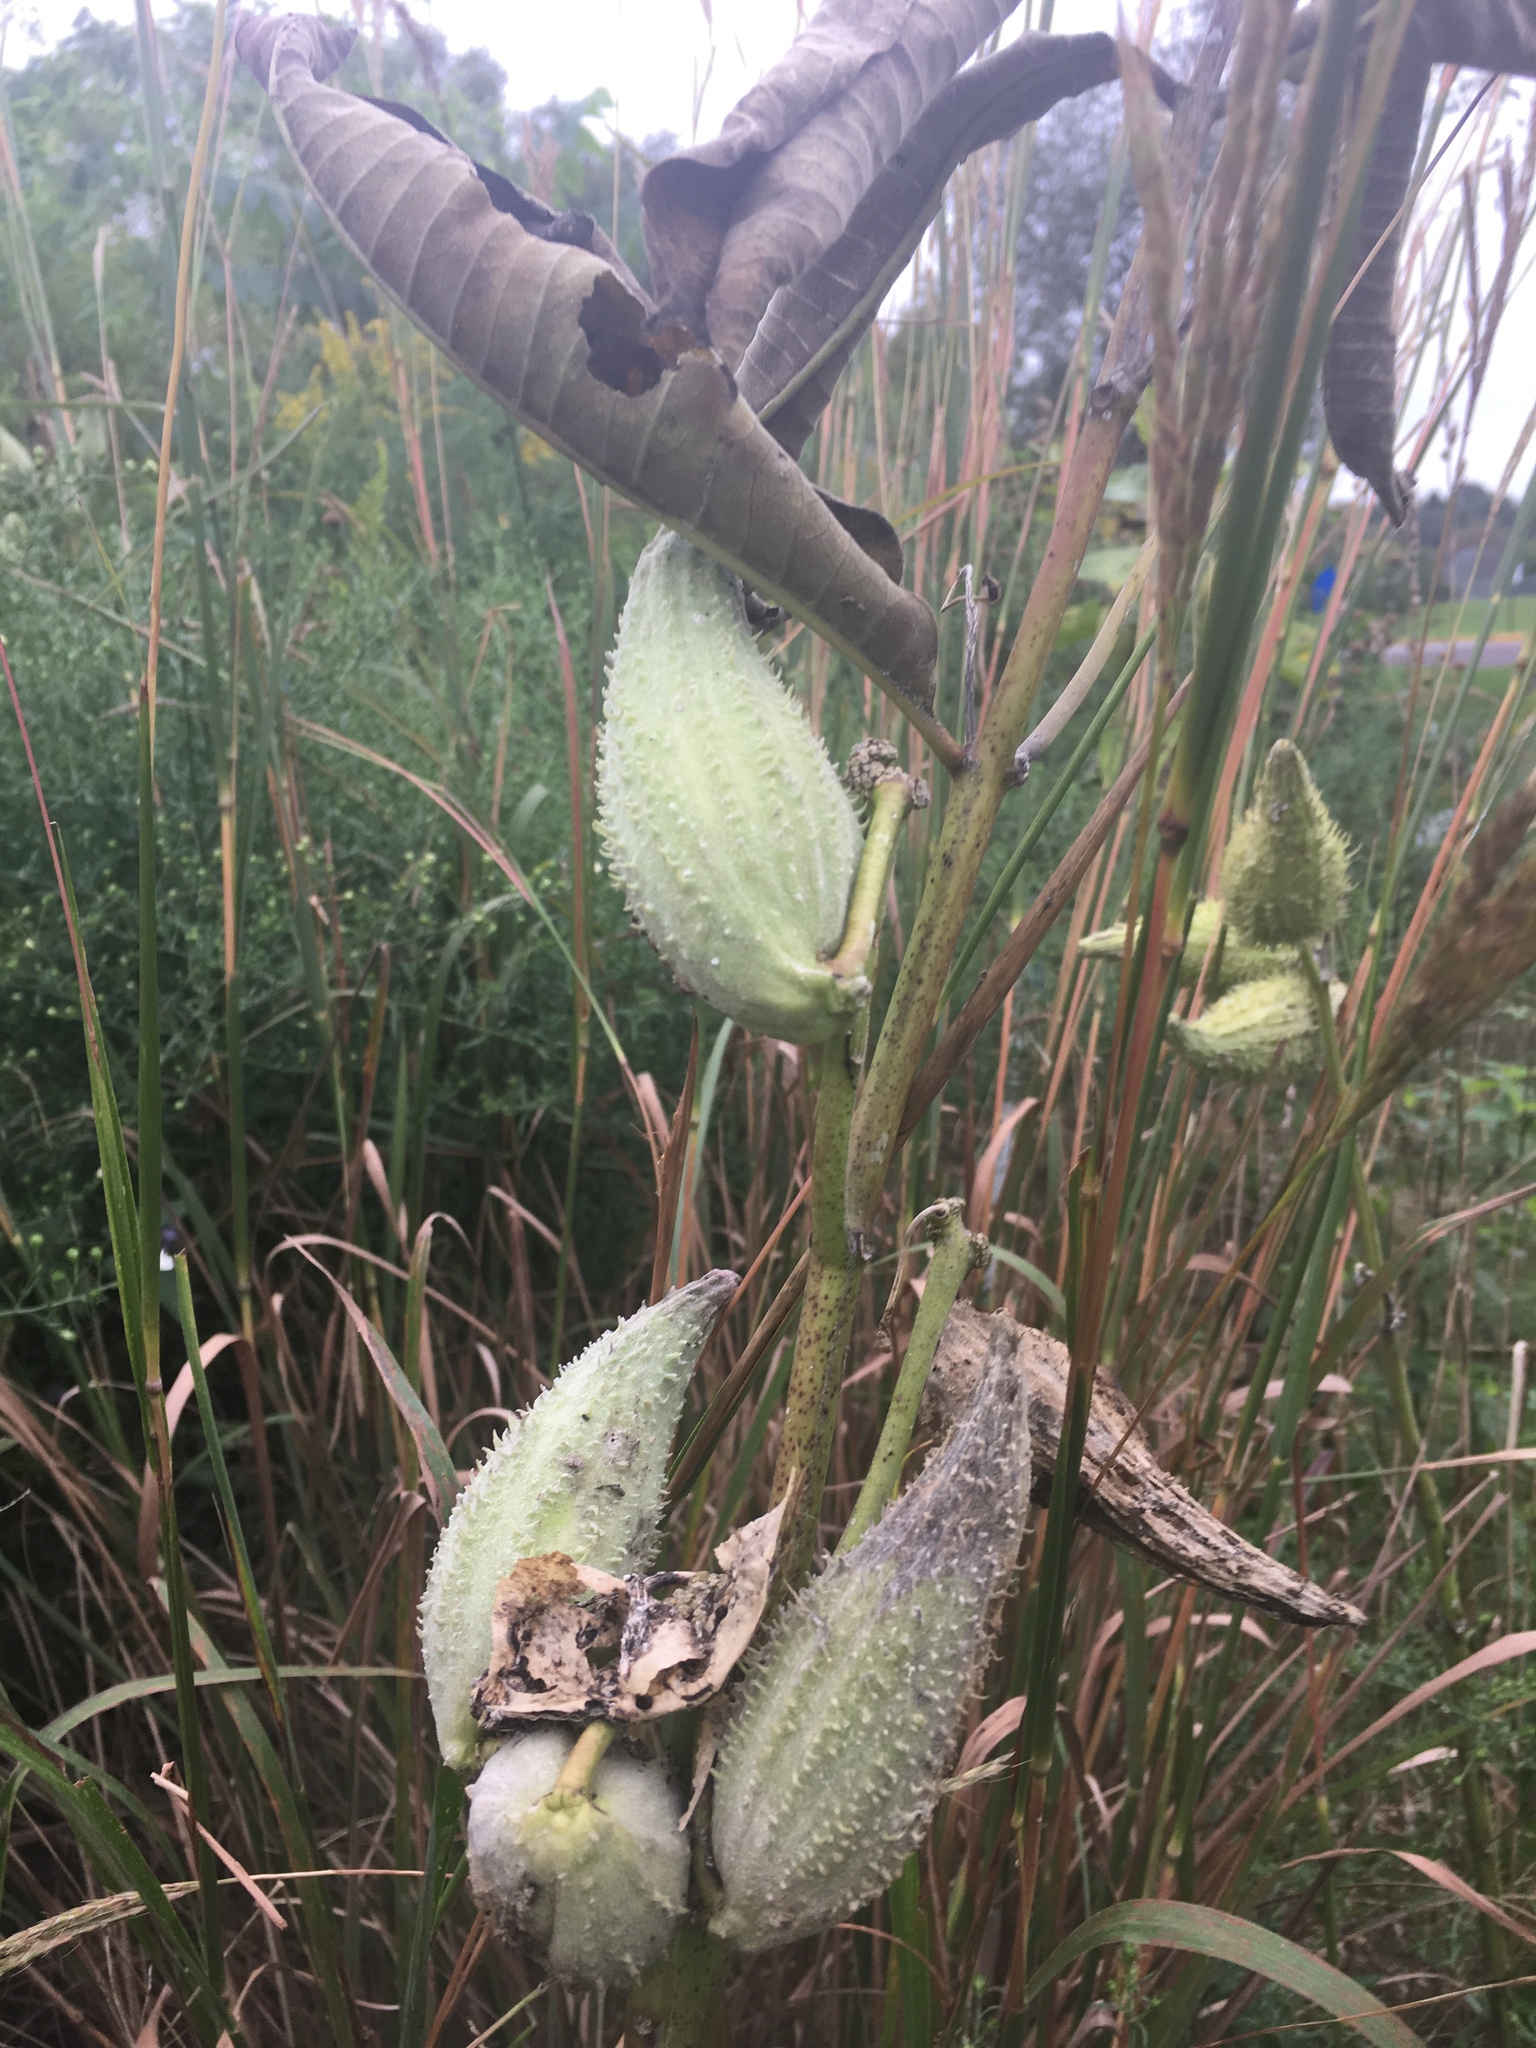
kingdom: Plantae
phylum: Tracheophyta
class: Magnoliopsida
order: Gentianales
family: Apocynaceae
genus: Asclepias
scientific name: Asclepias syriaca
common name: Common milkweed
